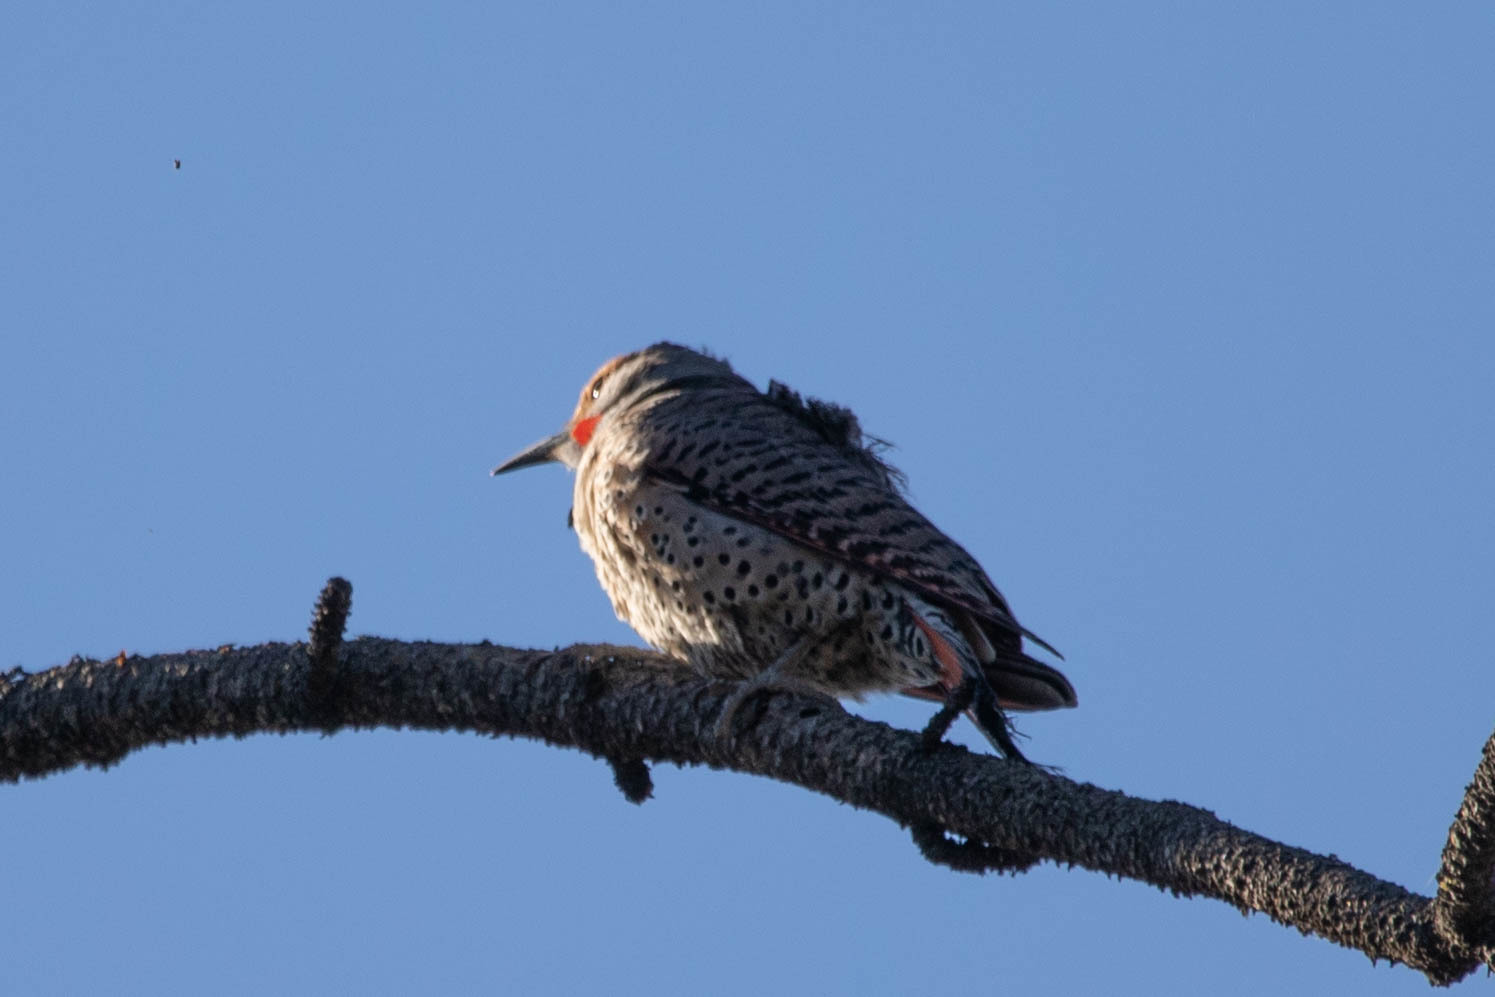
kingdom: Animalia
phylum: Chordata
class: Aves
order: Piciformes
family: Picidae
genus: Colaptes
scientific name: Colaptes auratus
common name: Northern flicker
